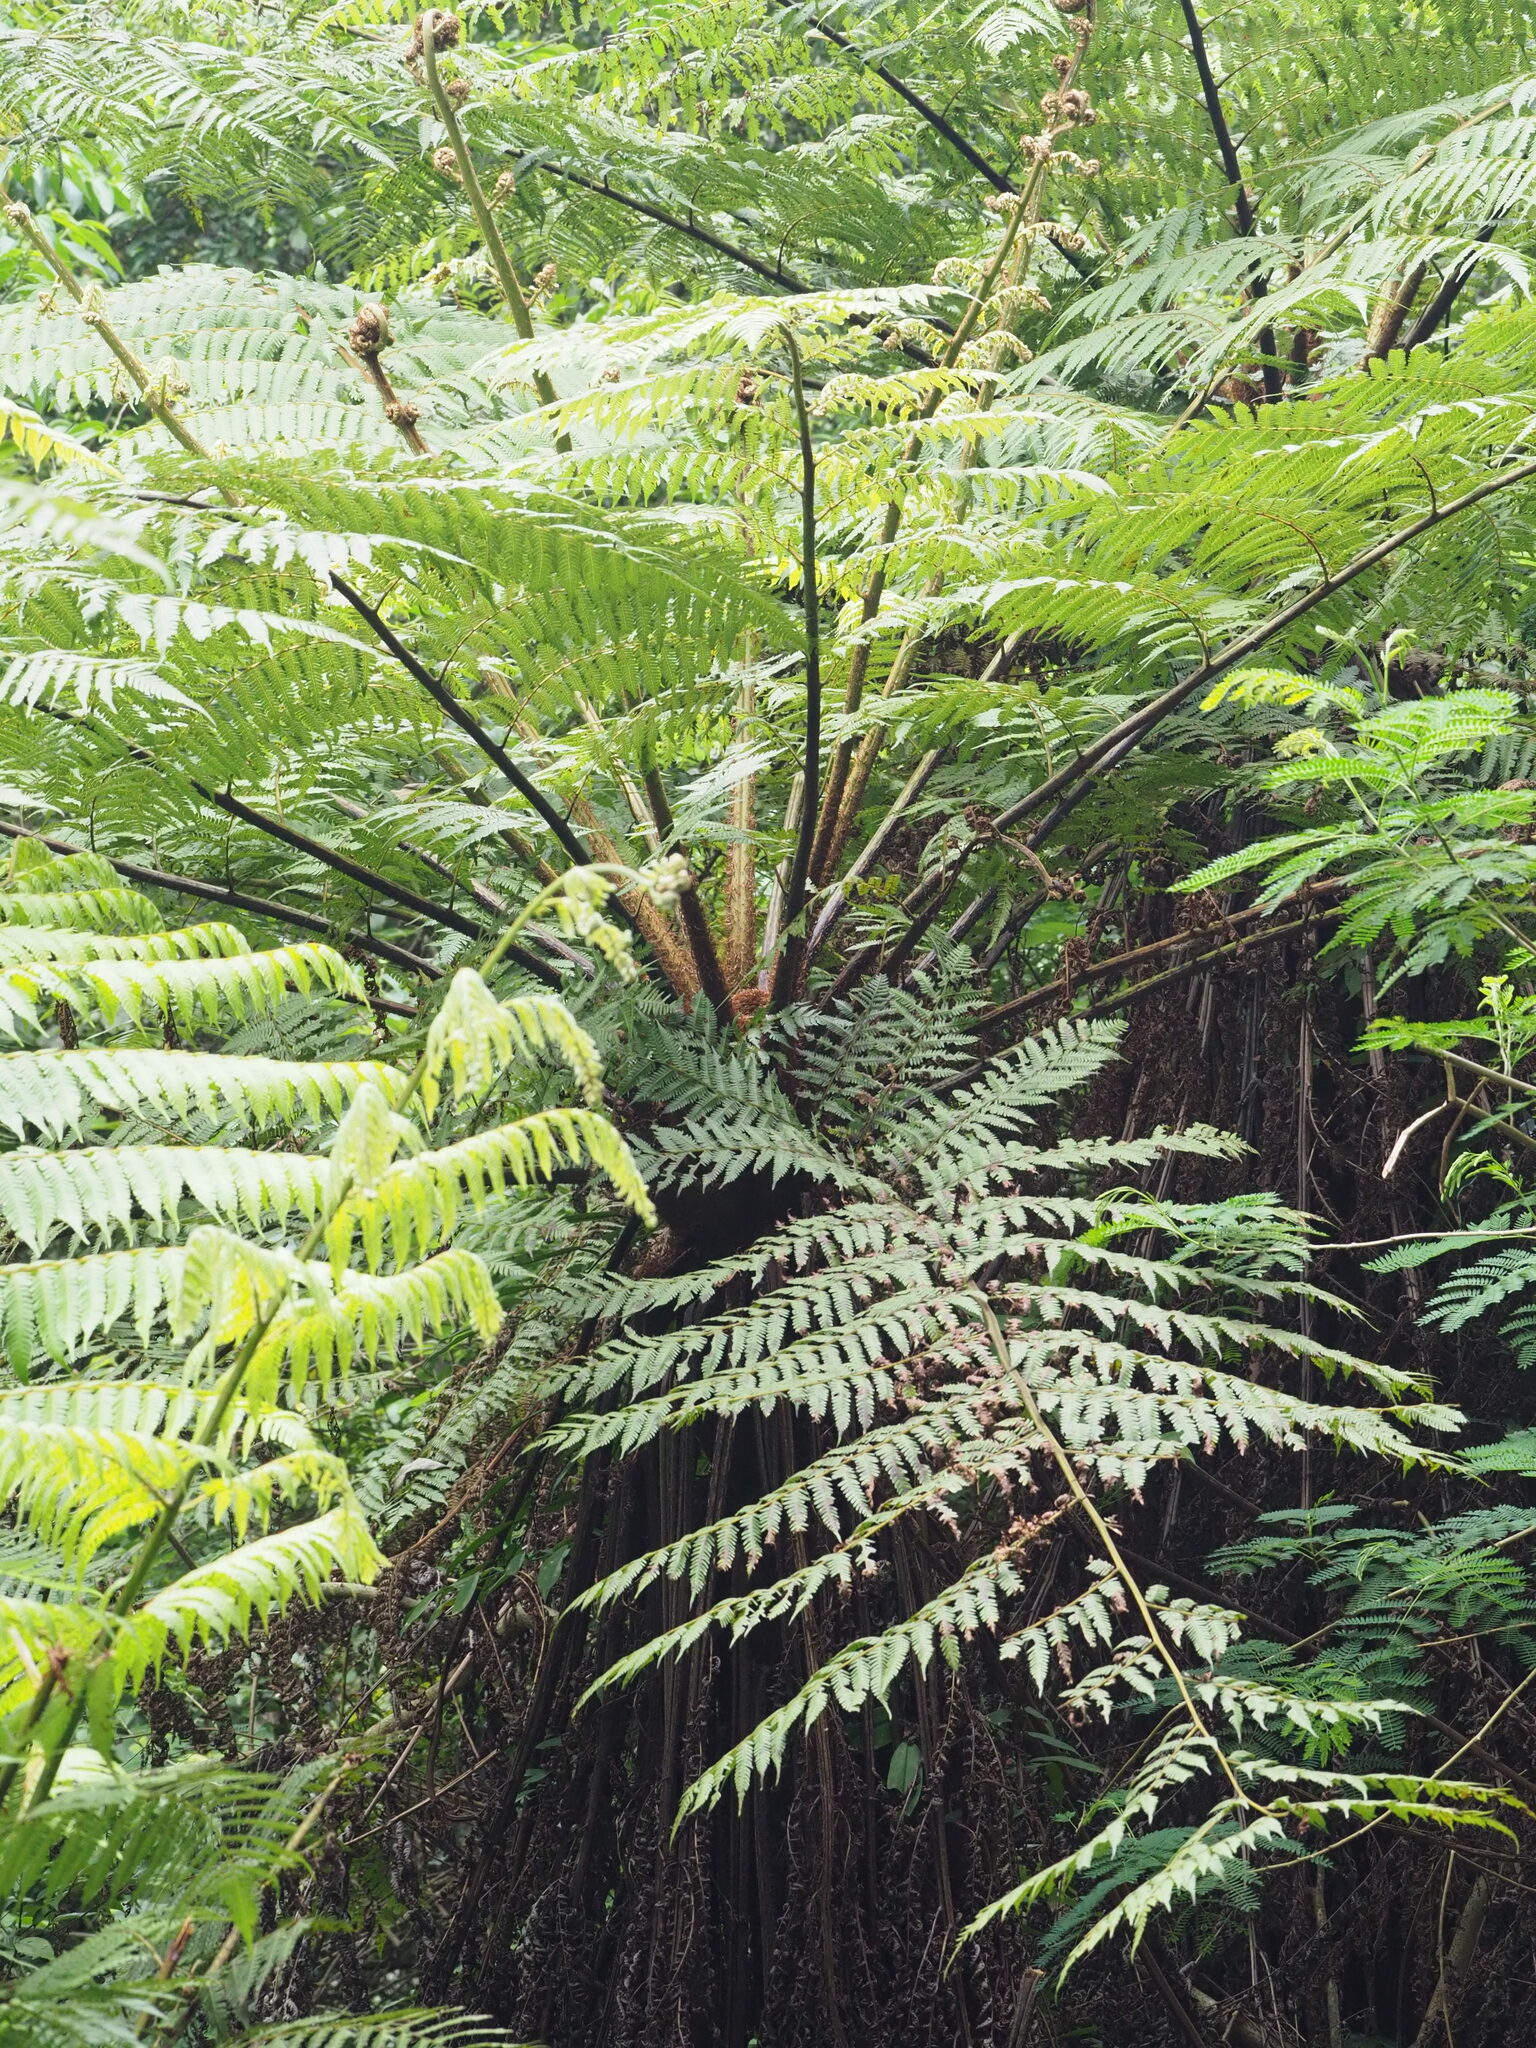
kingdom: Plantae
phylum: Tracheophyta
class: Polypodiopsida
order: Cyatheales
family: Cyatheaceae
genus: Alsophila
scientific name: Alsophila spinulosa
